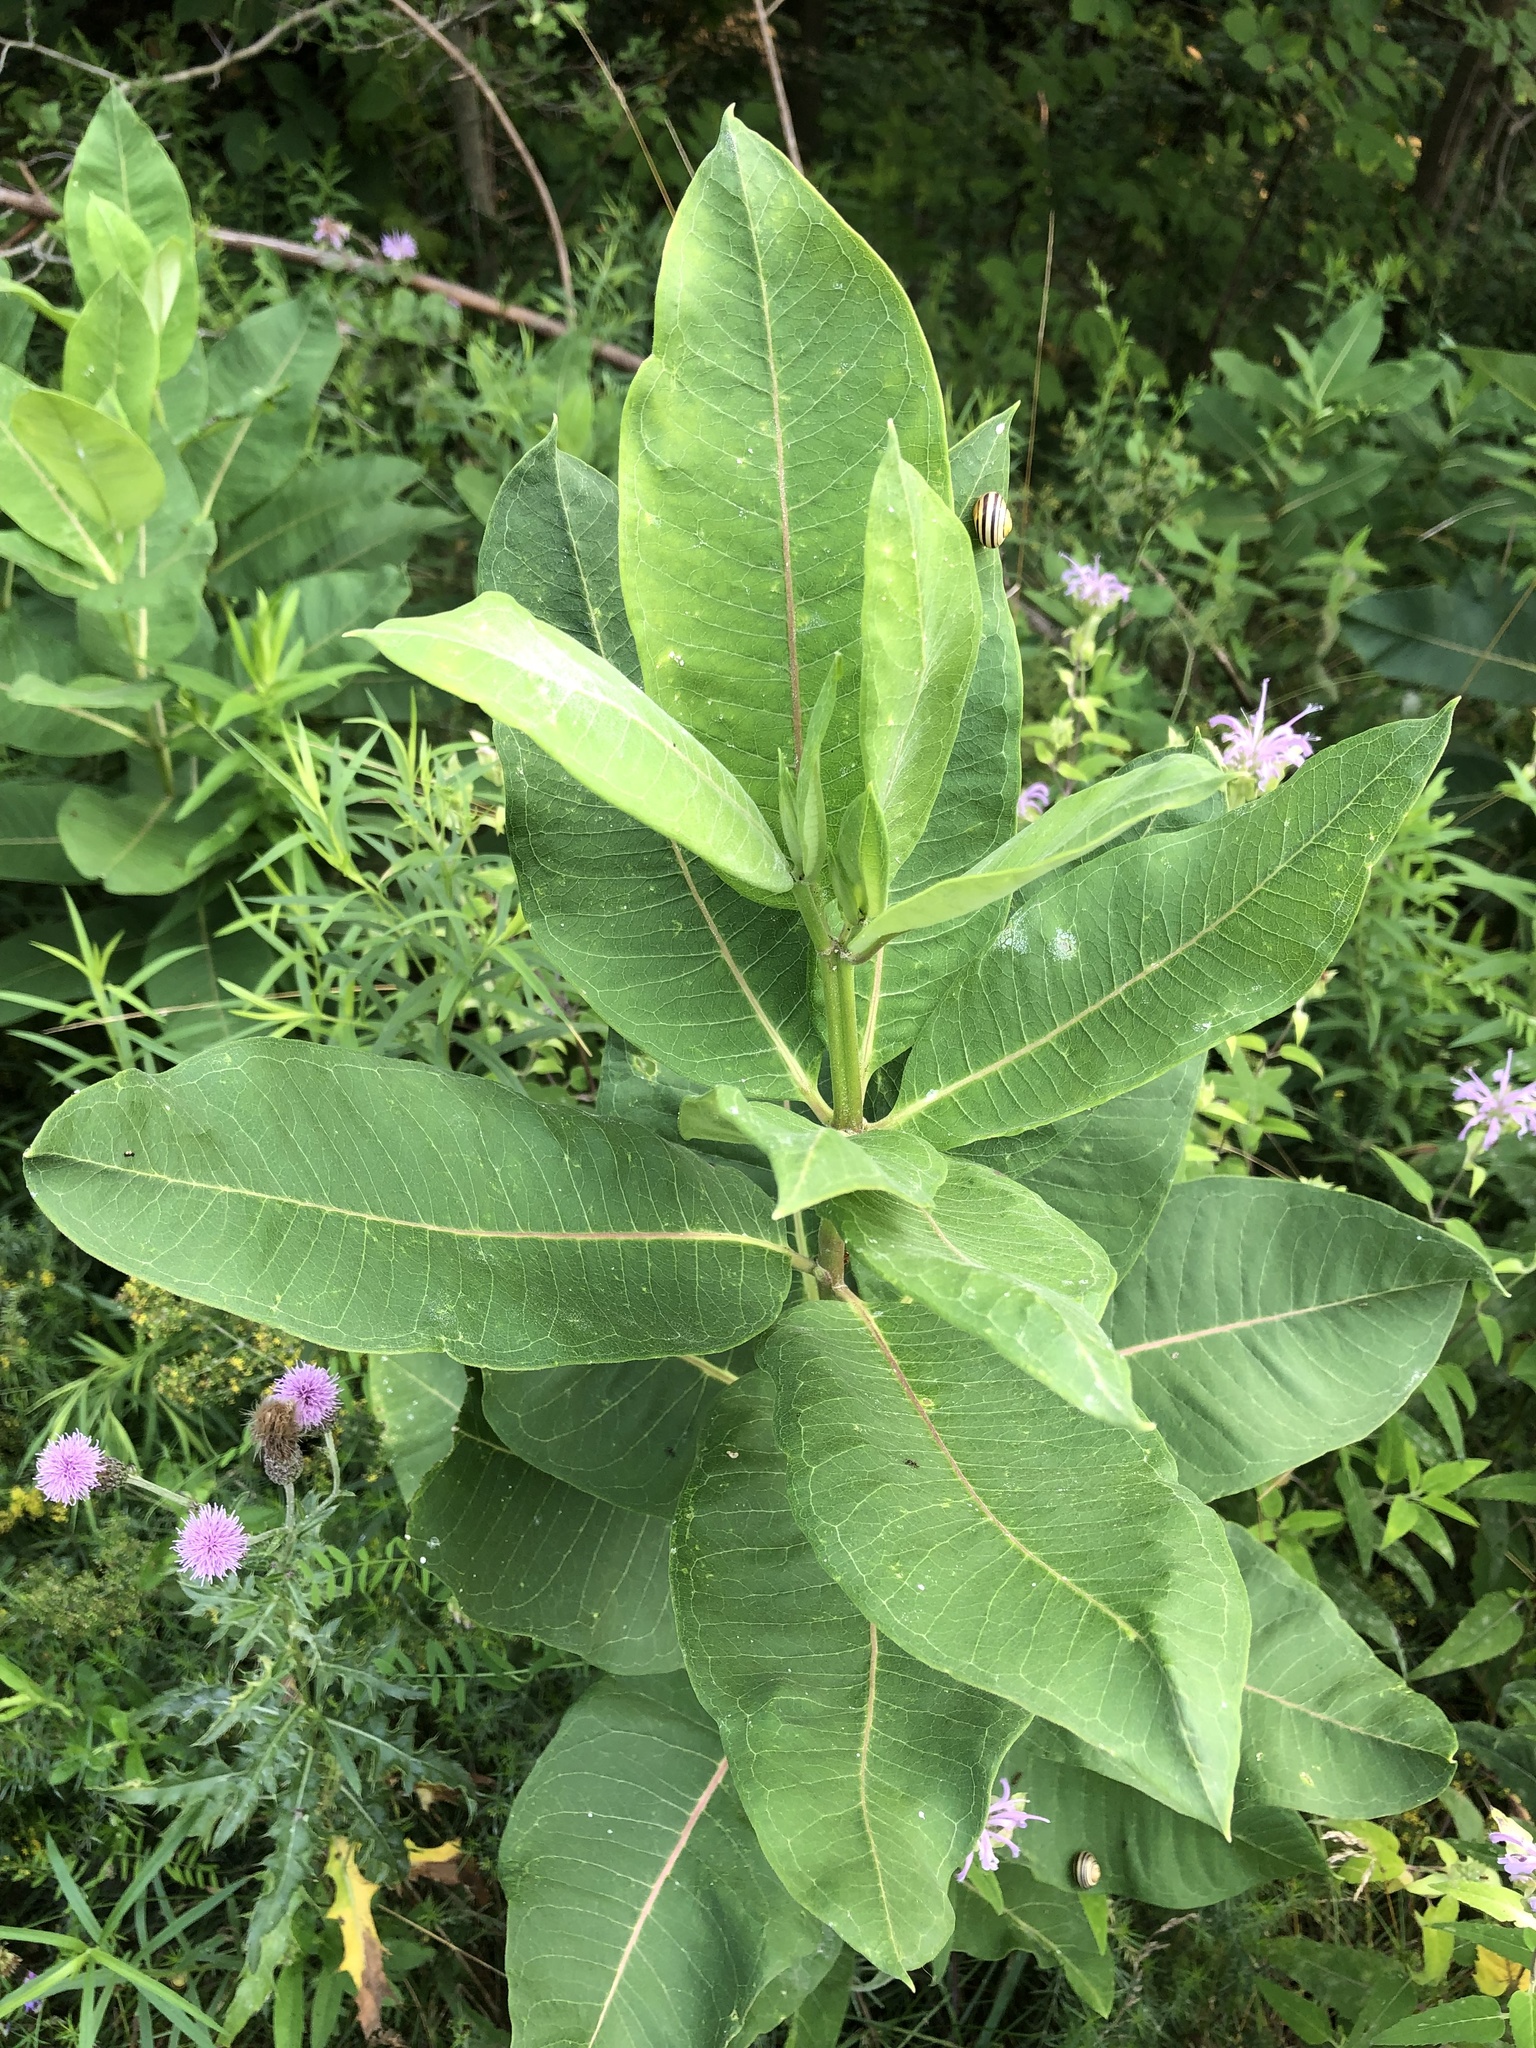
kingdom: Plantae
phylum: Tracheophyta
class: Magnoliopsida
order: Gentianales
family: Apocynaceae
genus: Asclepias
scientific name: Asclepias syriaca
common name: Common milkweed
